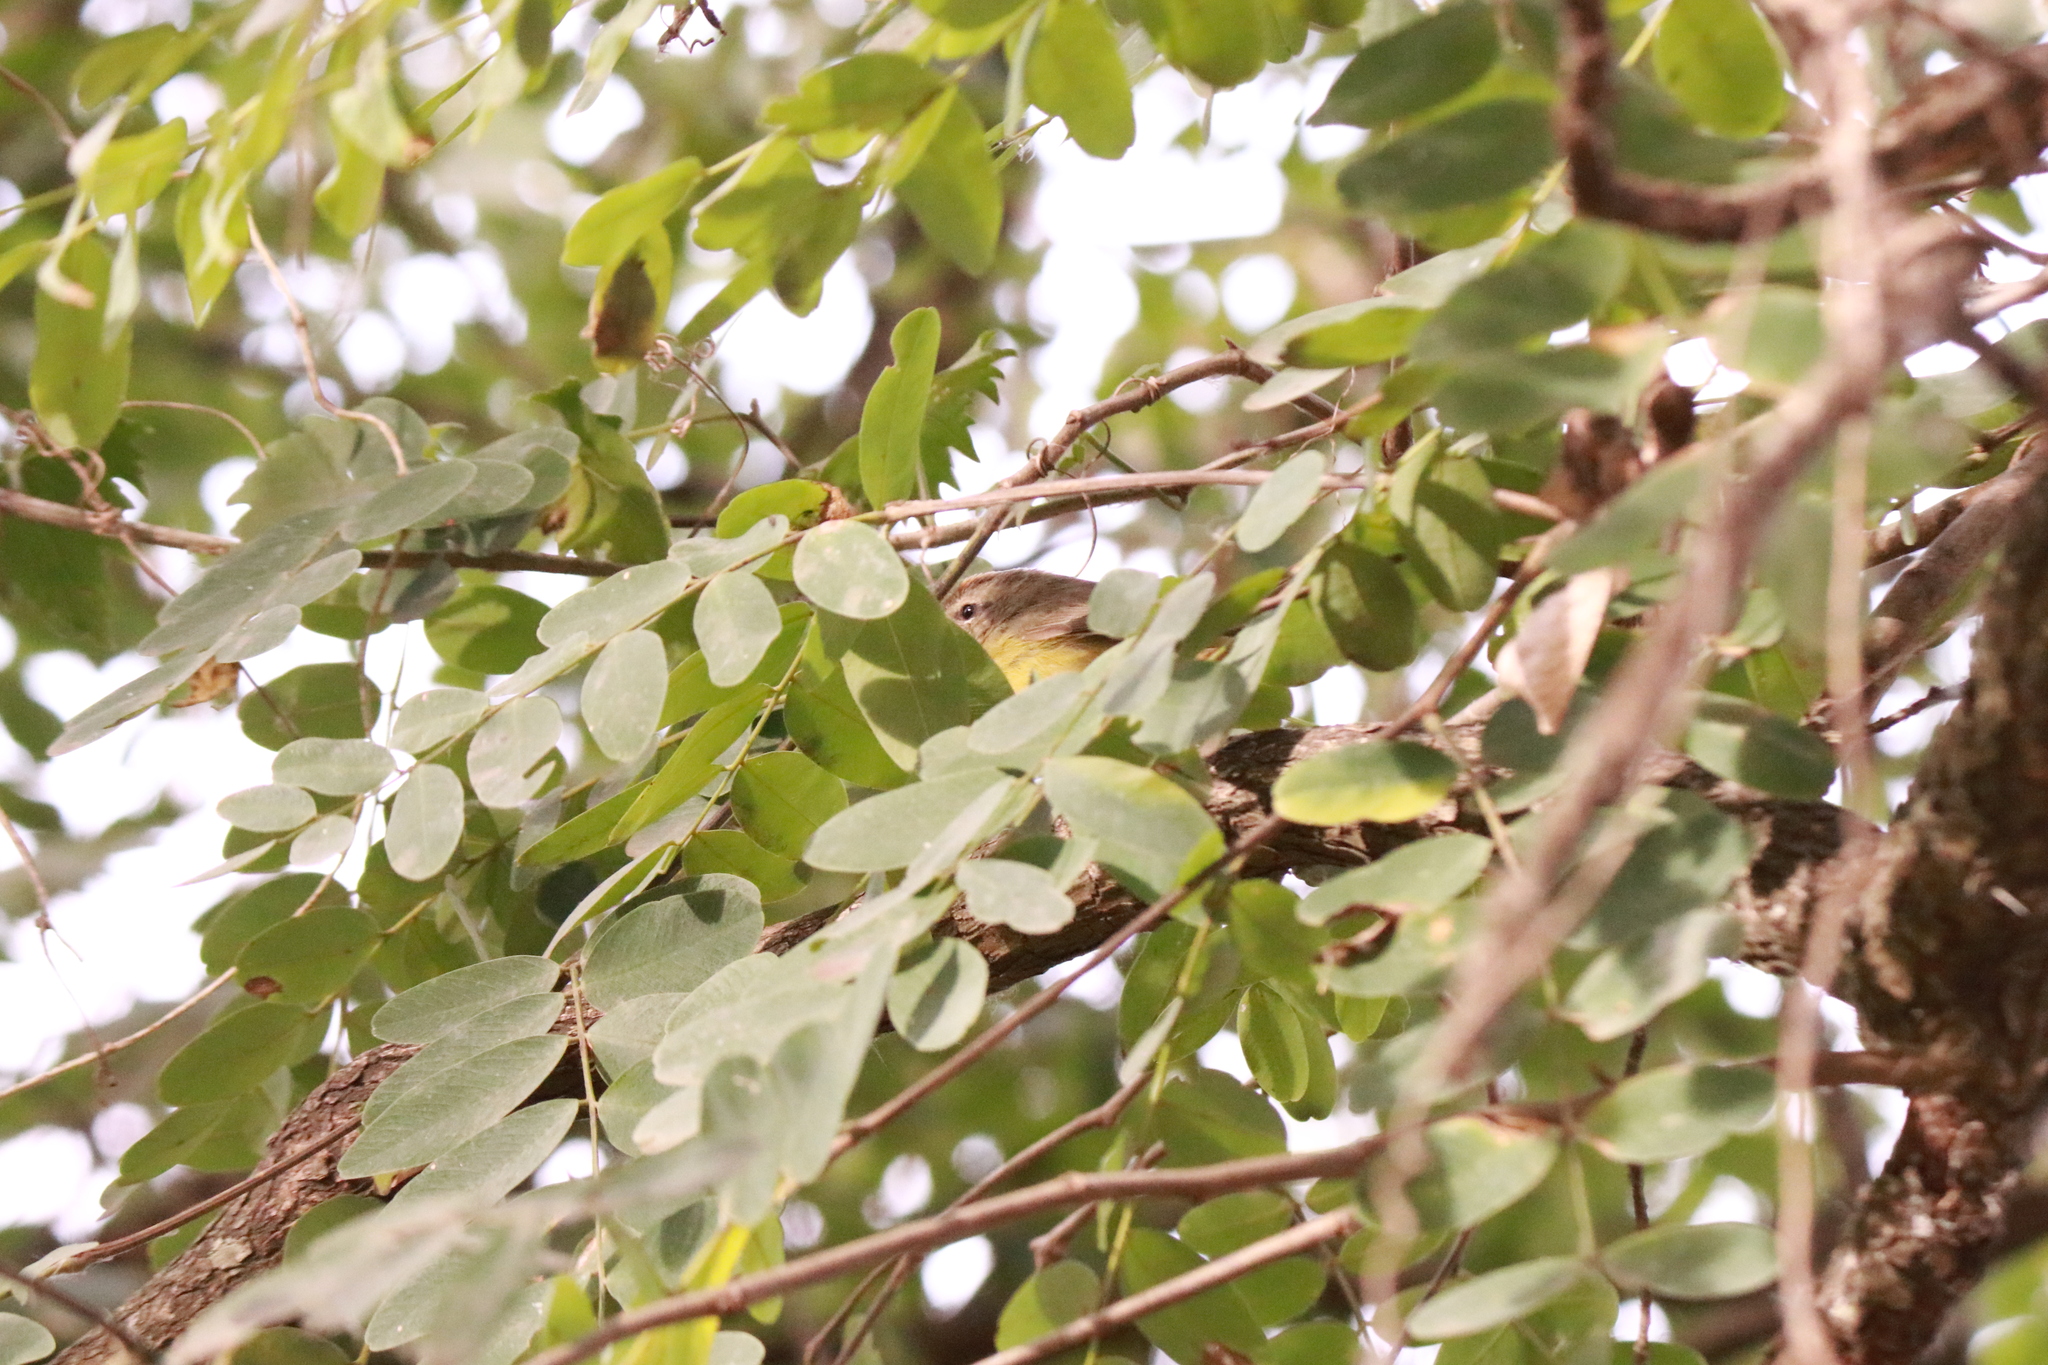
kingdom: Animalia
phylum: Chordata
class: Aves
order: Passeriformes
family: Parulidae
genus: Basileuterus
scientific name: Basileuterus culicivorus
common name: Golden-crowned warbler
